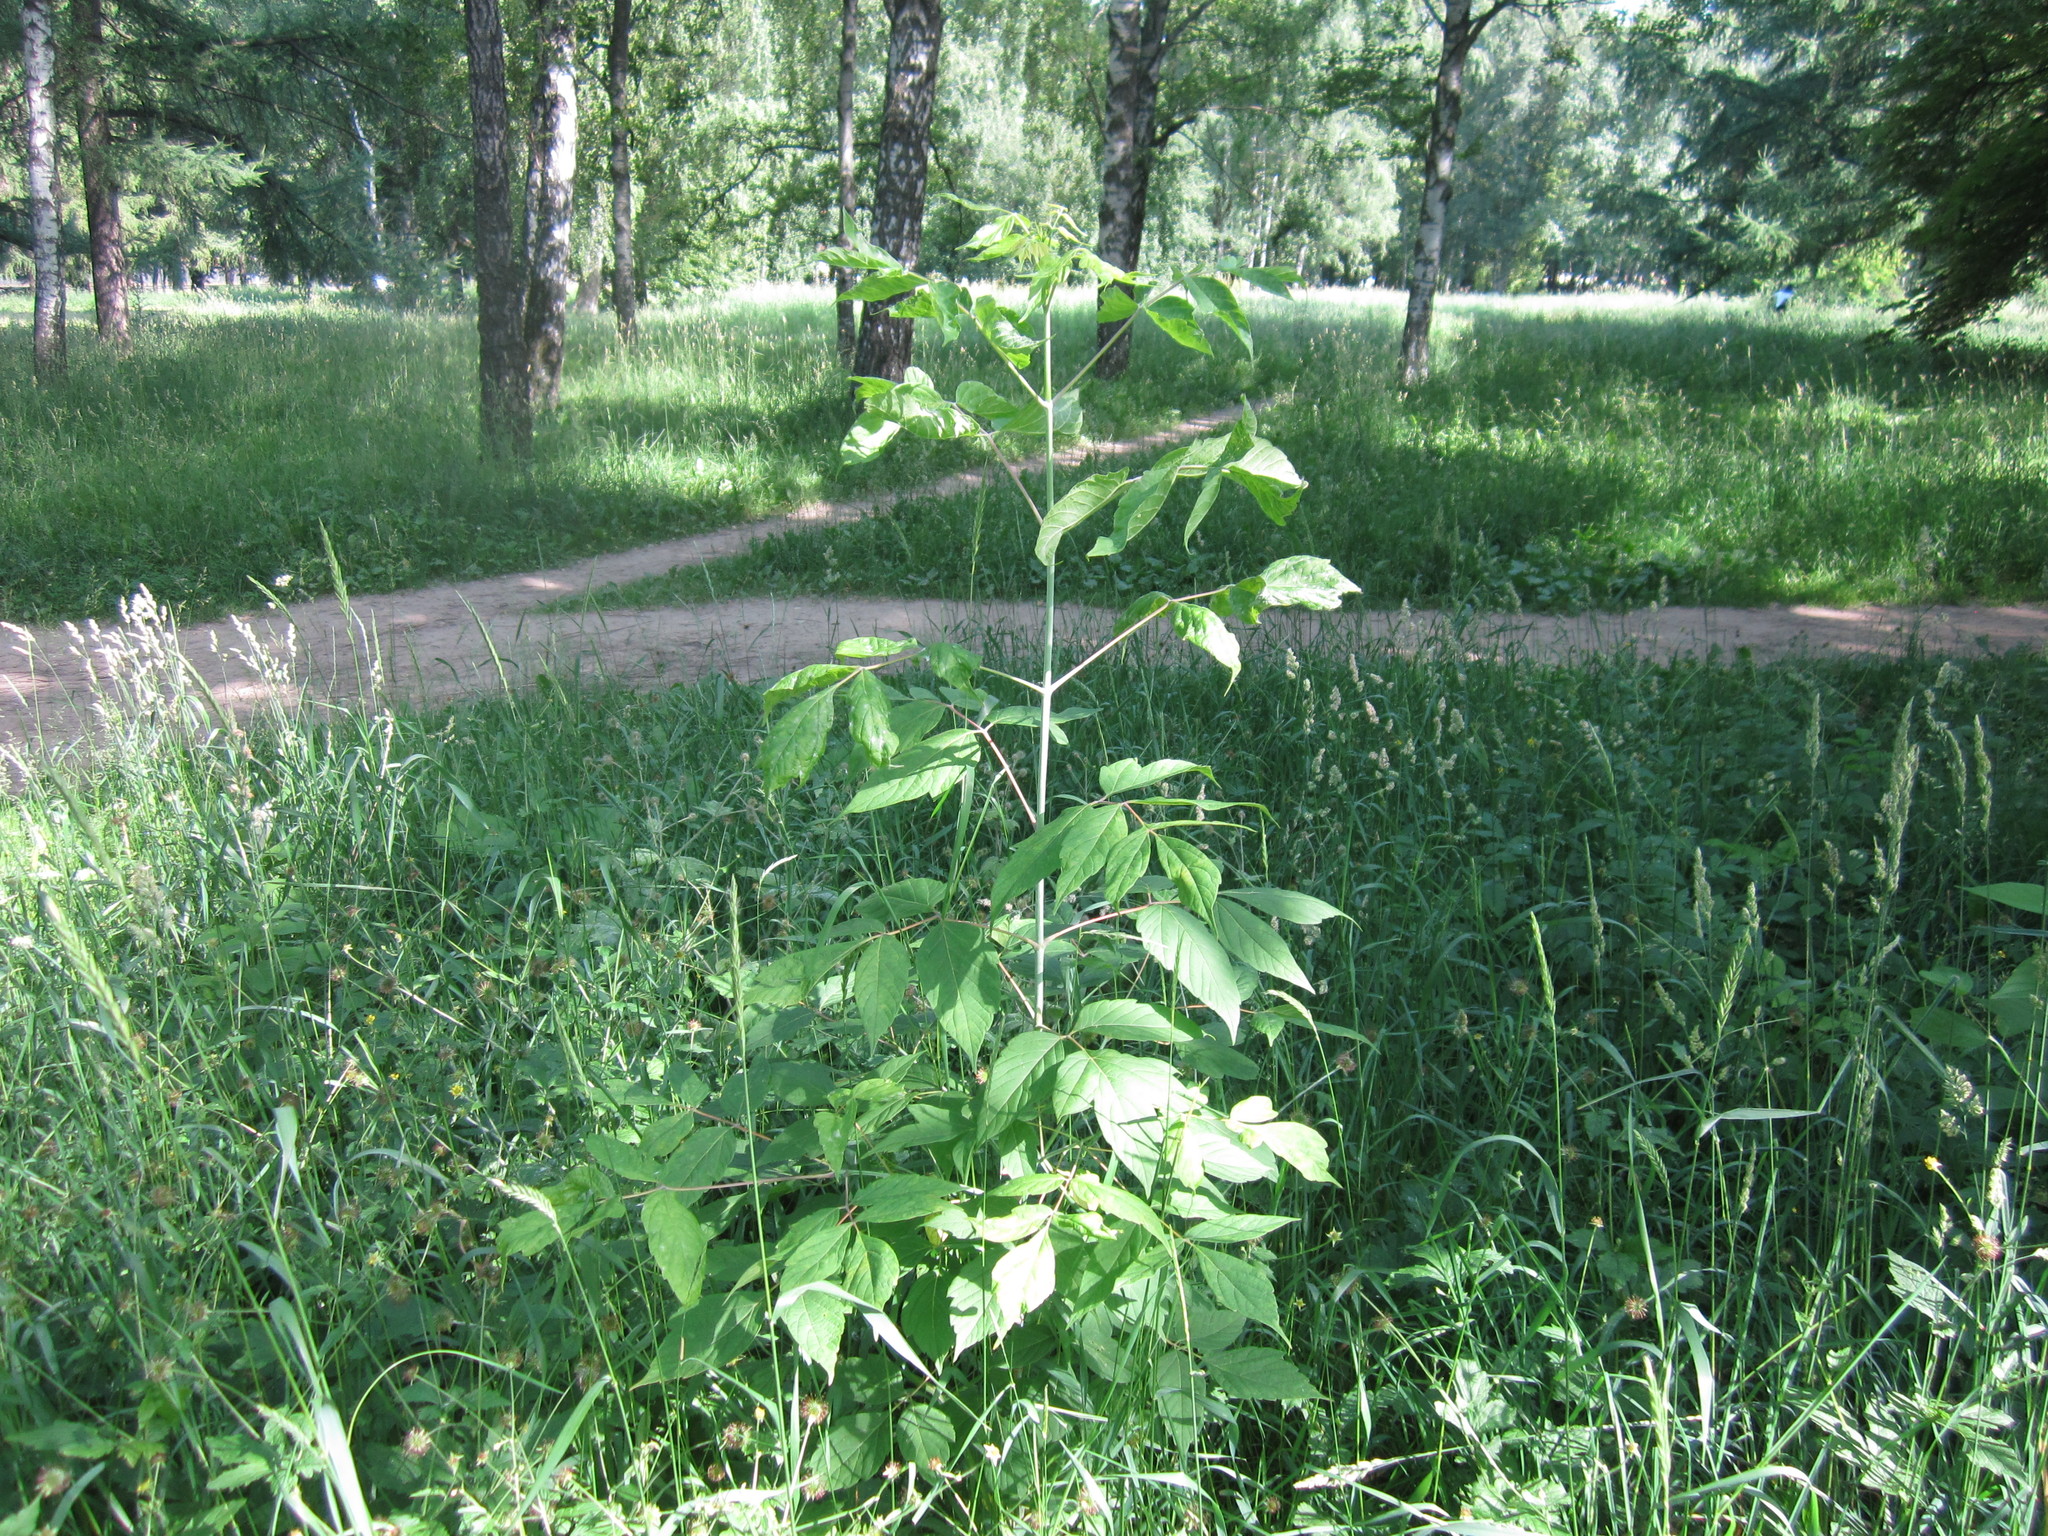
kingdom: Plantae
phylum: Tracheophyta
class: Magnoliopsida
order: Sapindales
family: Sapindaceae
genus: Acer
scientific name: Acer negundo
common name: Ashleaf maple
